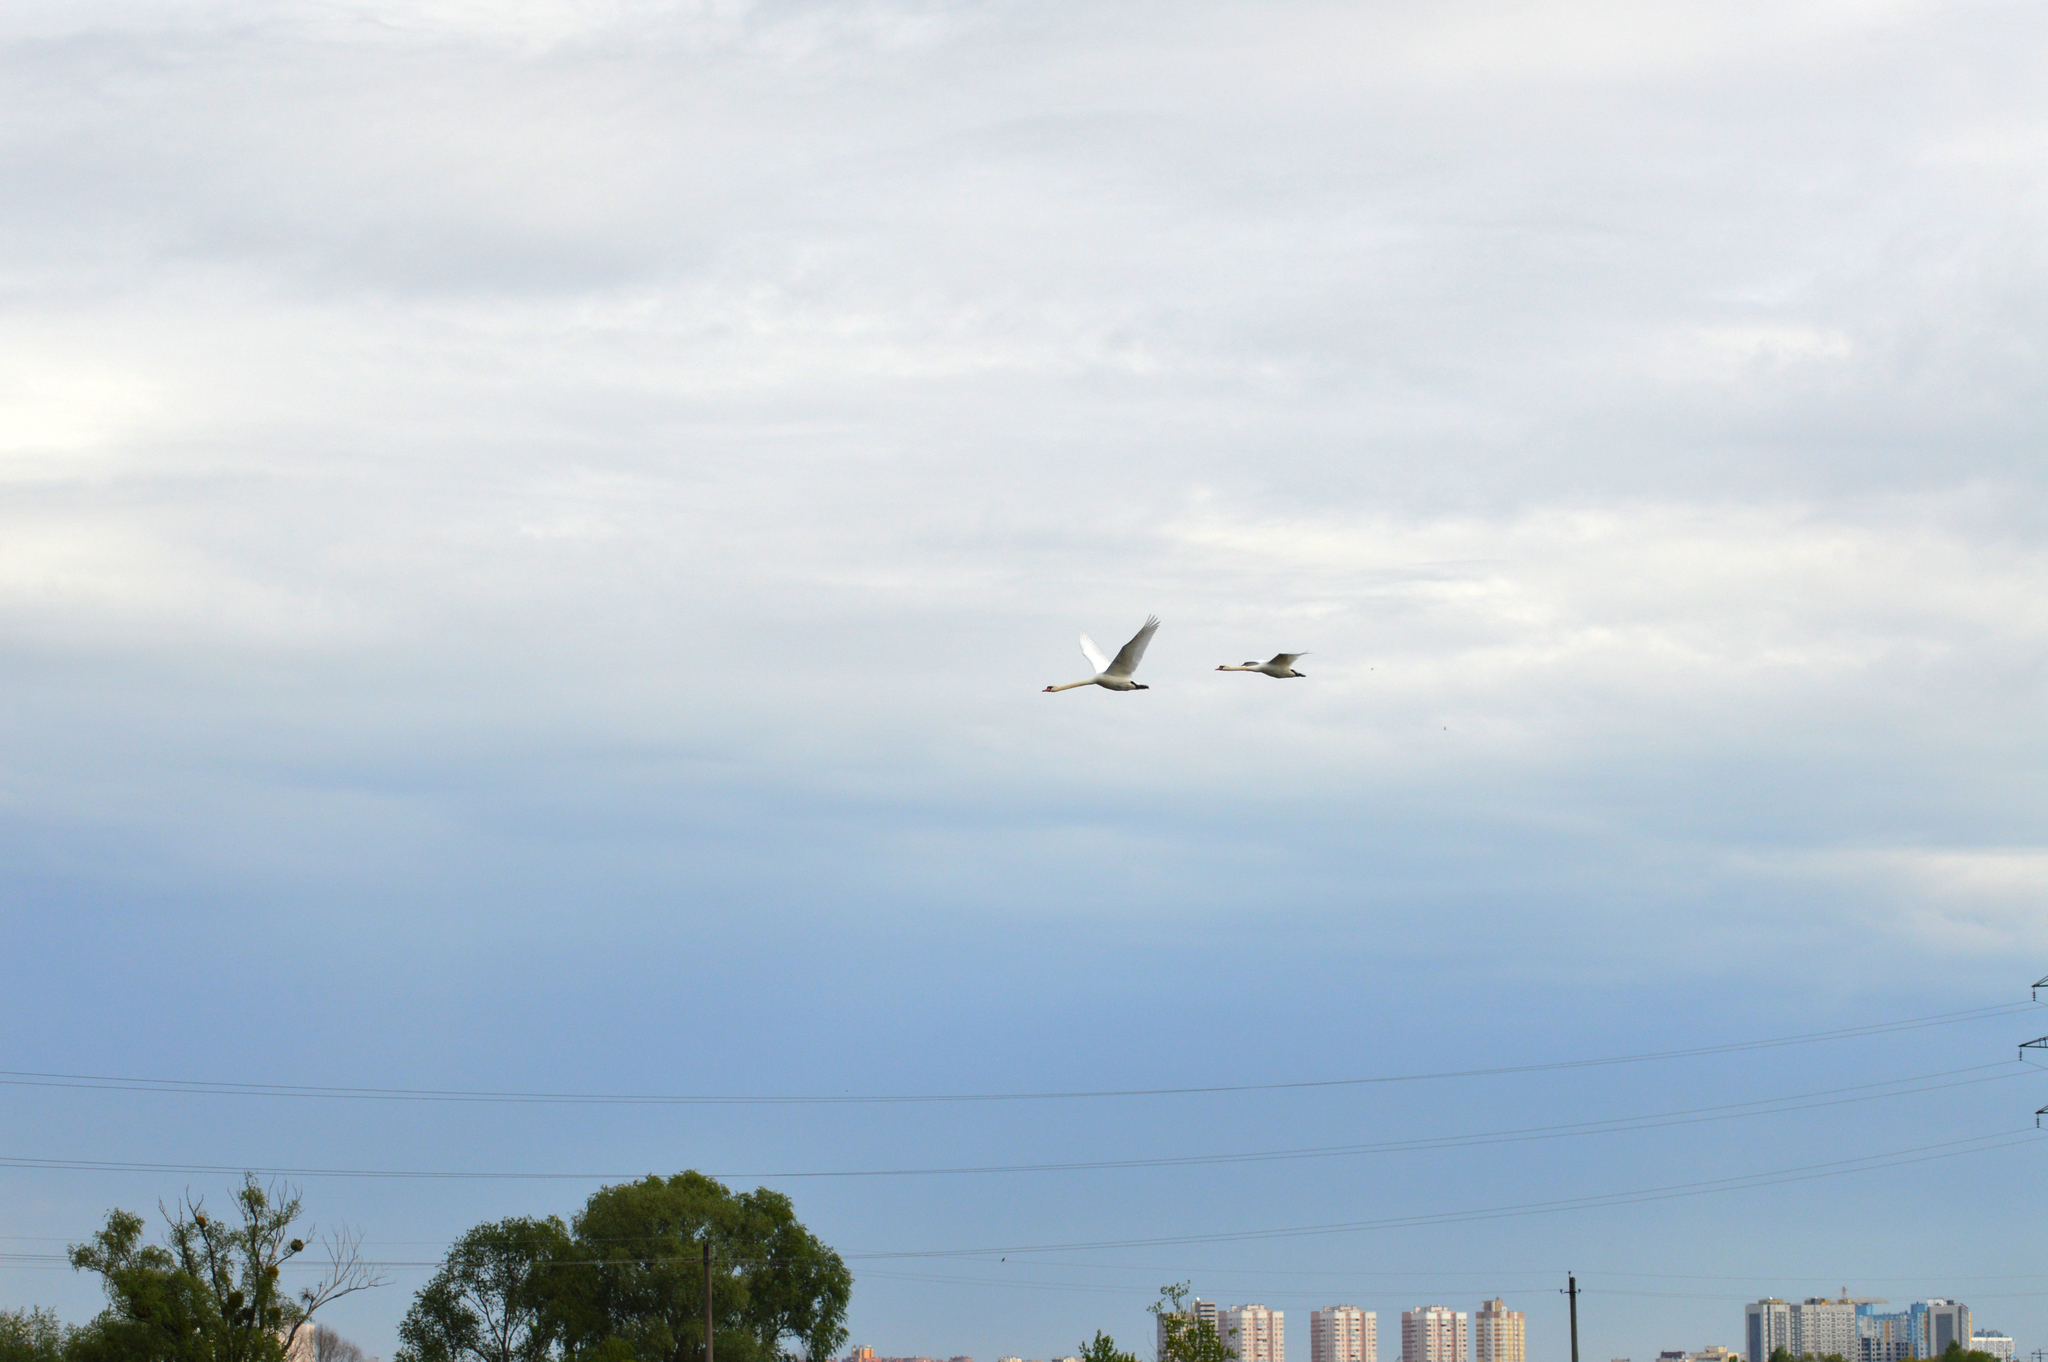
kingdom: Animalia
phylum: Chordata
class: Aves
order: Anseriformes
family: Anatidae
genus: Cygnus
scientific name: Cygnus olor
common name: Mute swan
